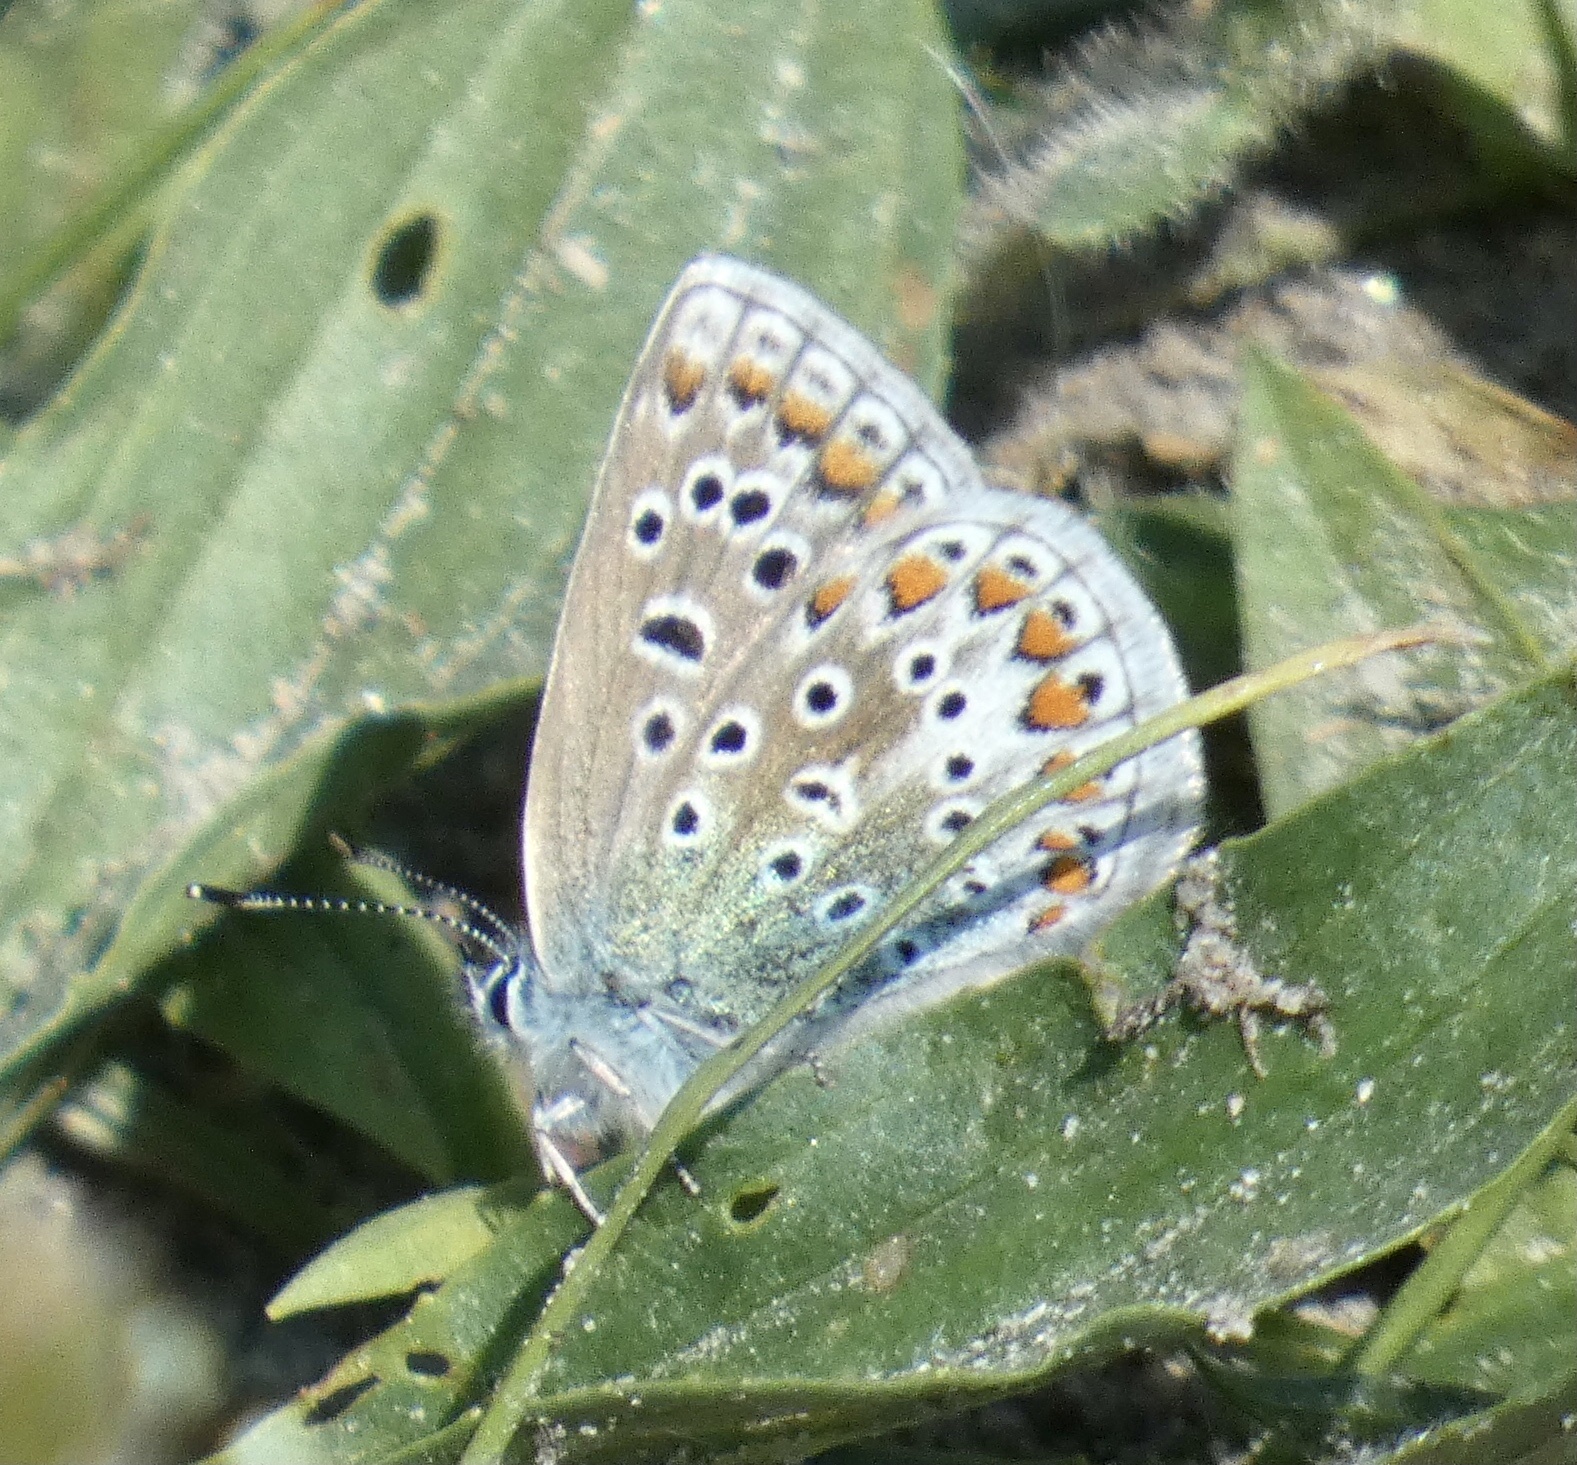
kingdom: Animalia
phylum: Arthropoda
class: Insecta
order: Lepidoptera
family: Lycaenidae
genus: Polyommatus
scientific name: Polyommatus icarus
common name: Common blue
